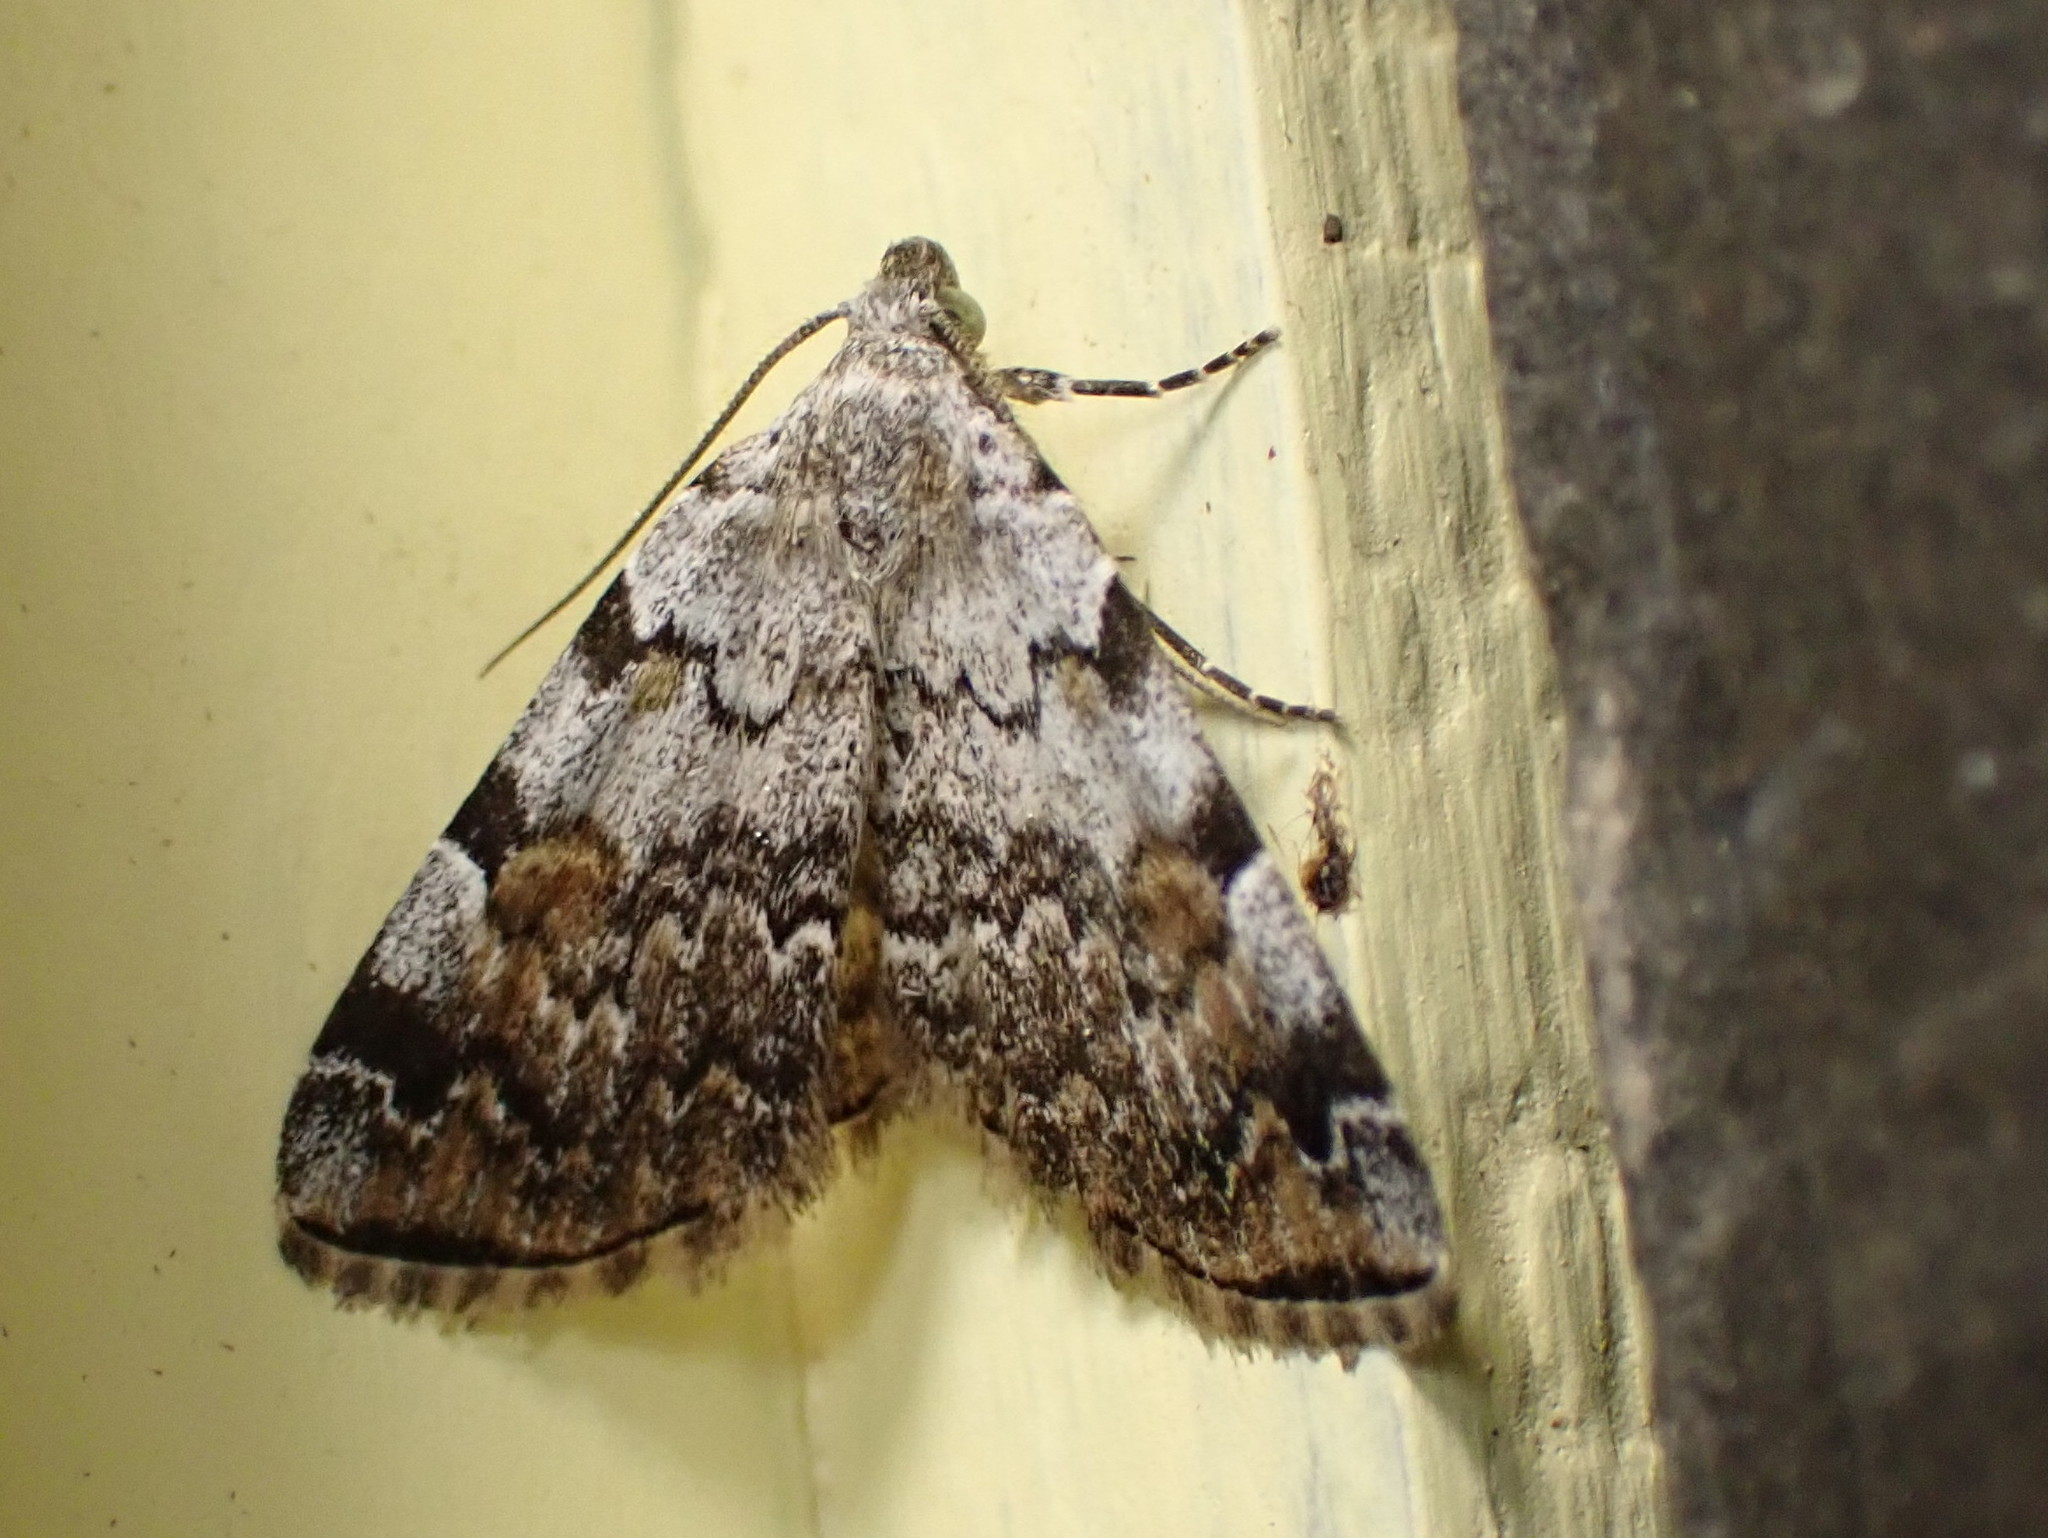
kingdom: Animalia
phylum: Arthropoda
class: Insecta
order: Lepidoptera
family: Erebidae
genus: Idia
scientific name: Idia americalis
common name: American idia moth
